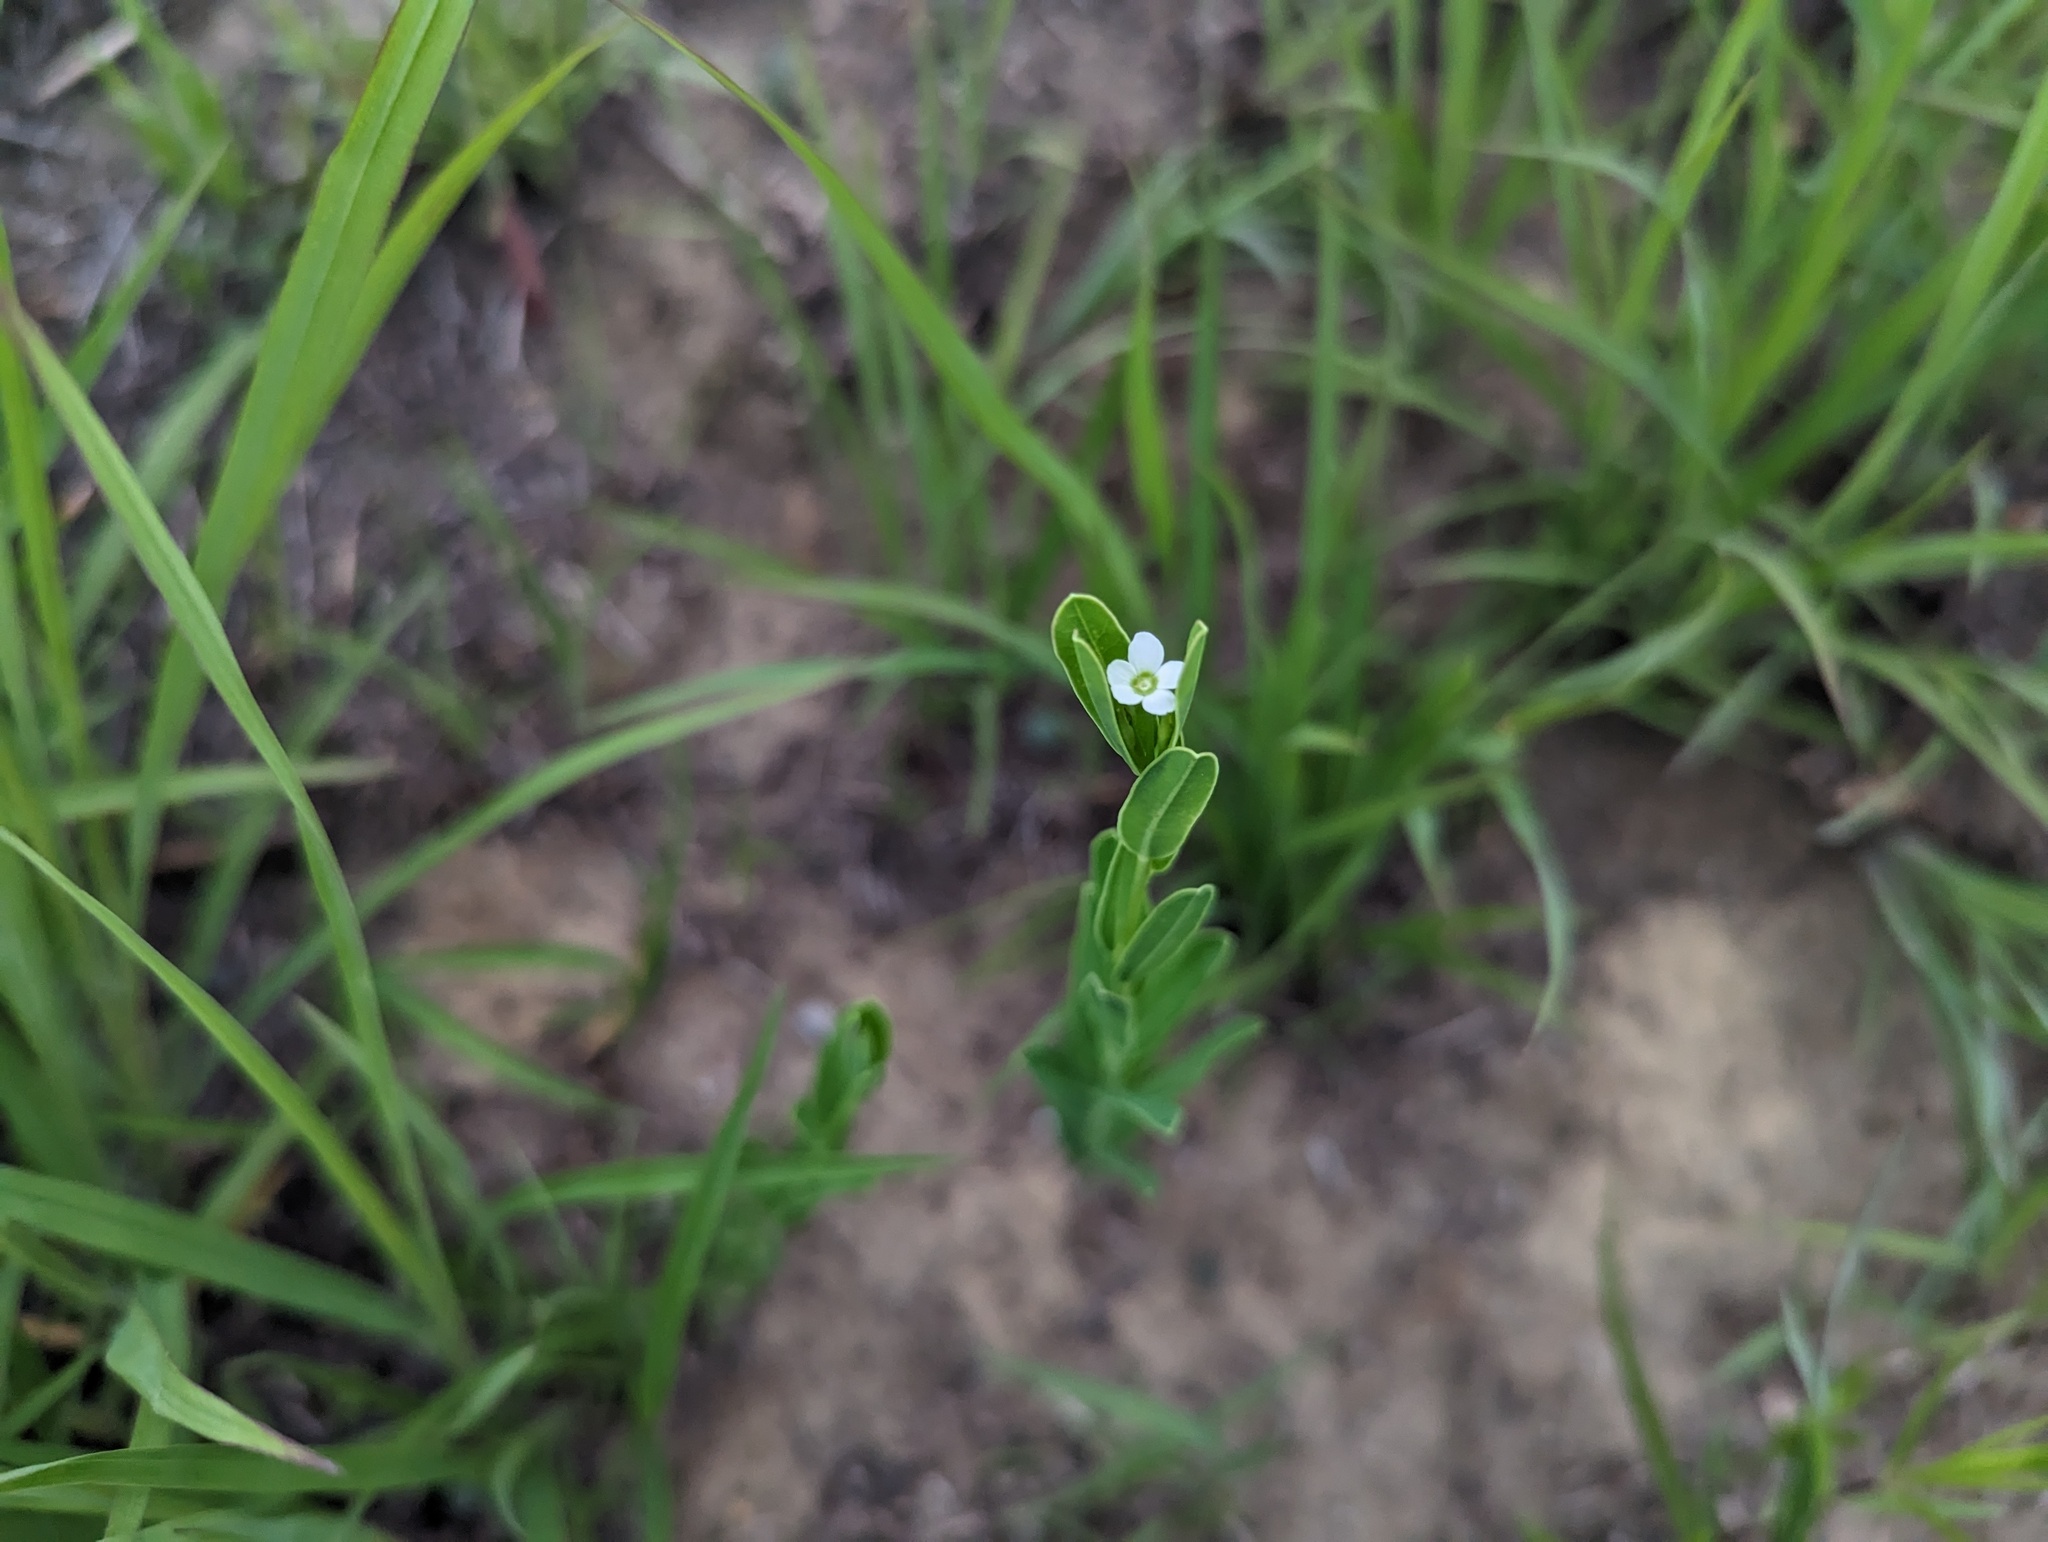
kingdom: Plantae
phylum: Tracheophyta
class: Magnoliopsida
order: Malpighiales
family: Euphorbiaceae
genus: Euphorbia
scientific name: Euphorbia corollata
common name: Flowering spurge
